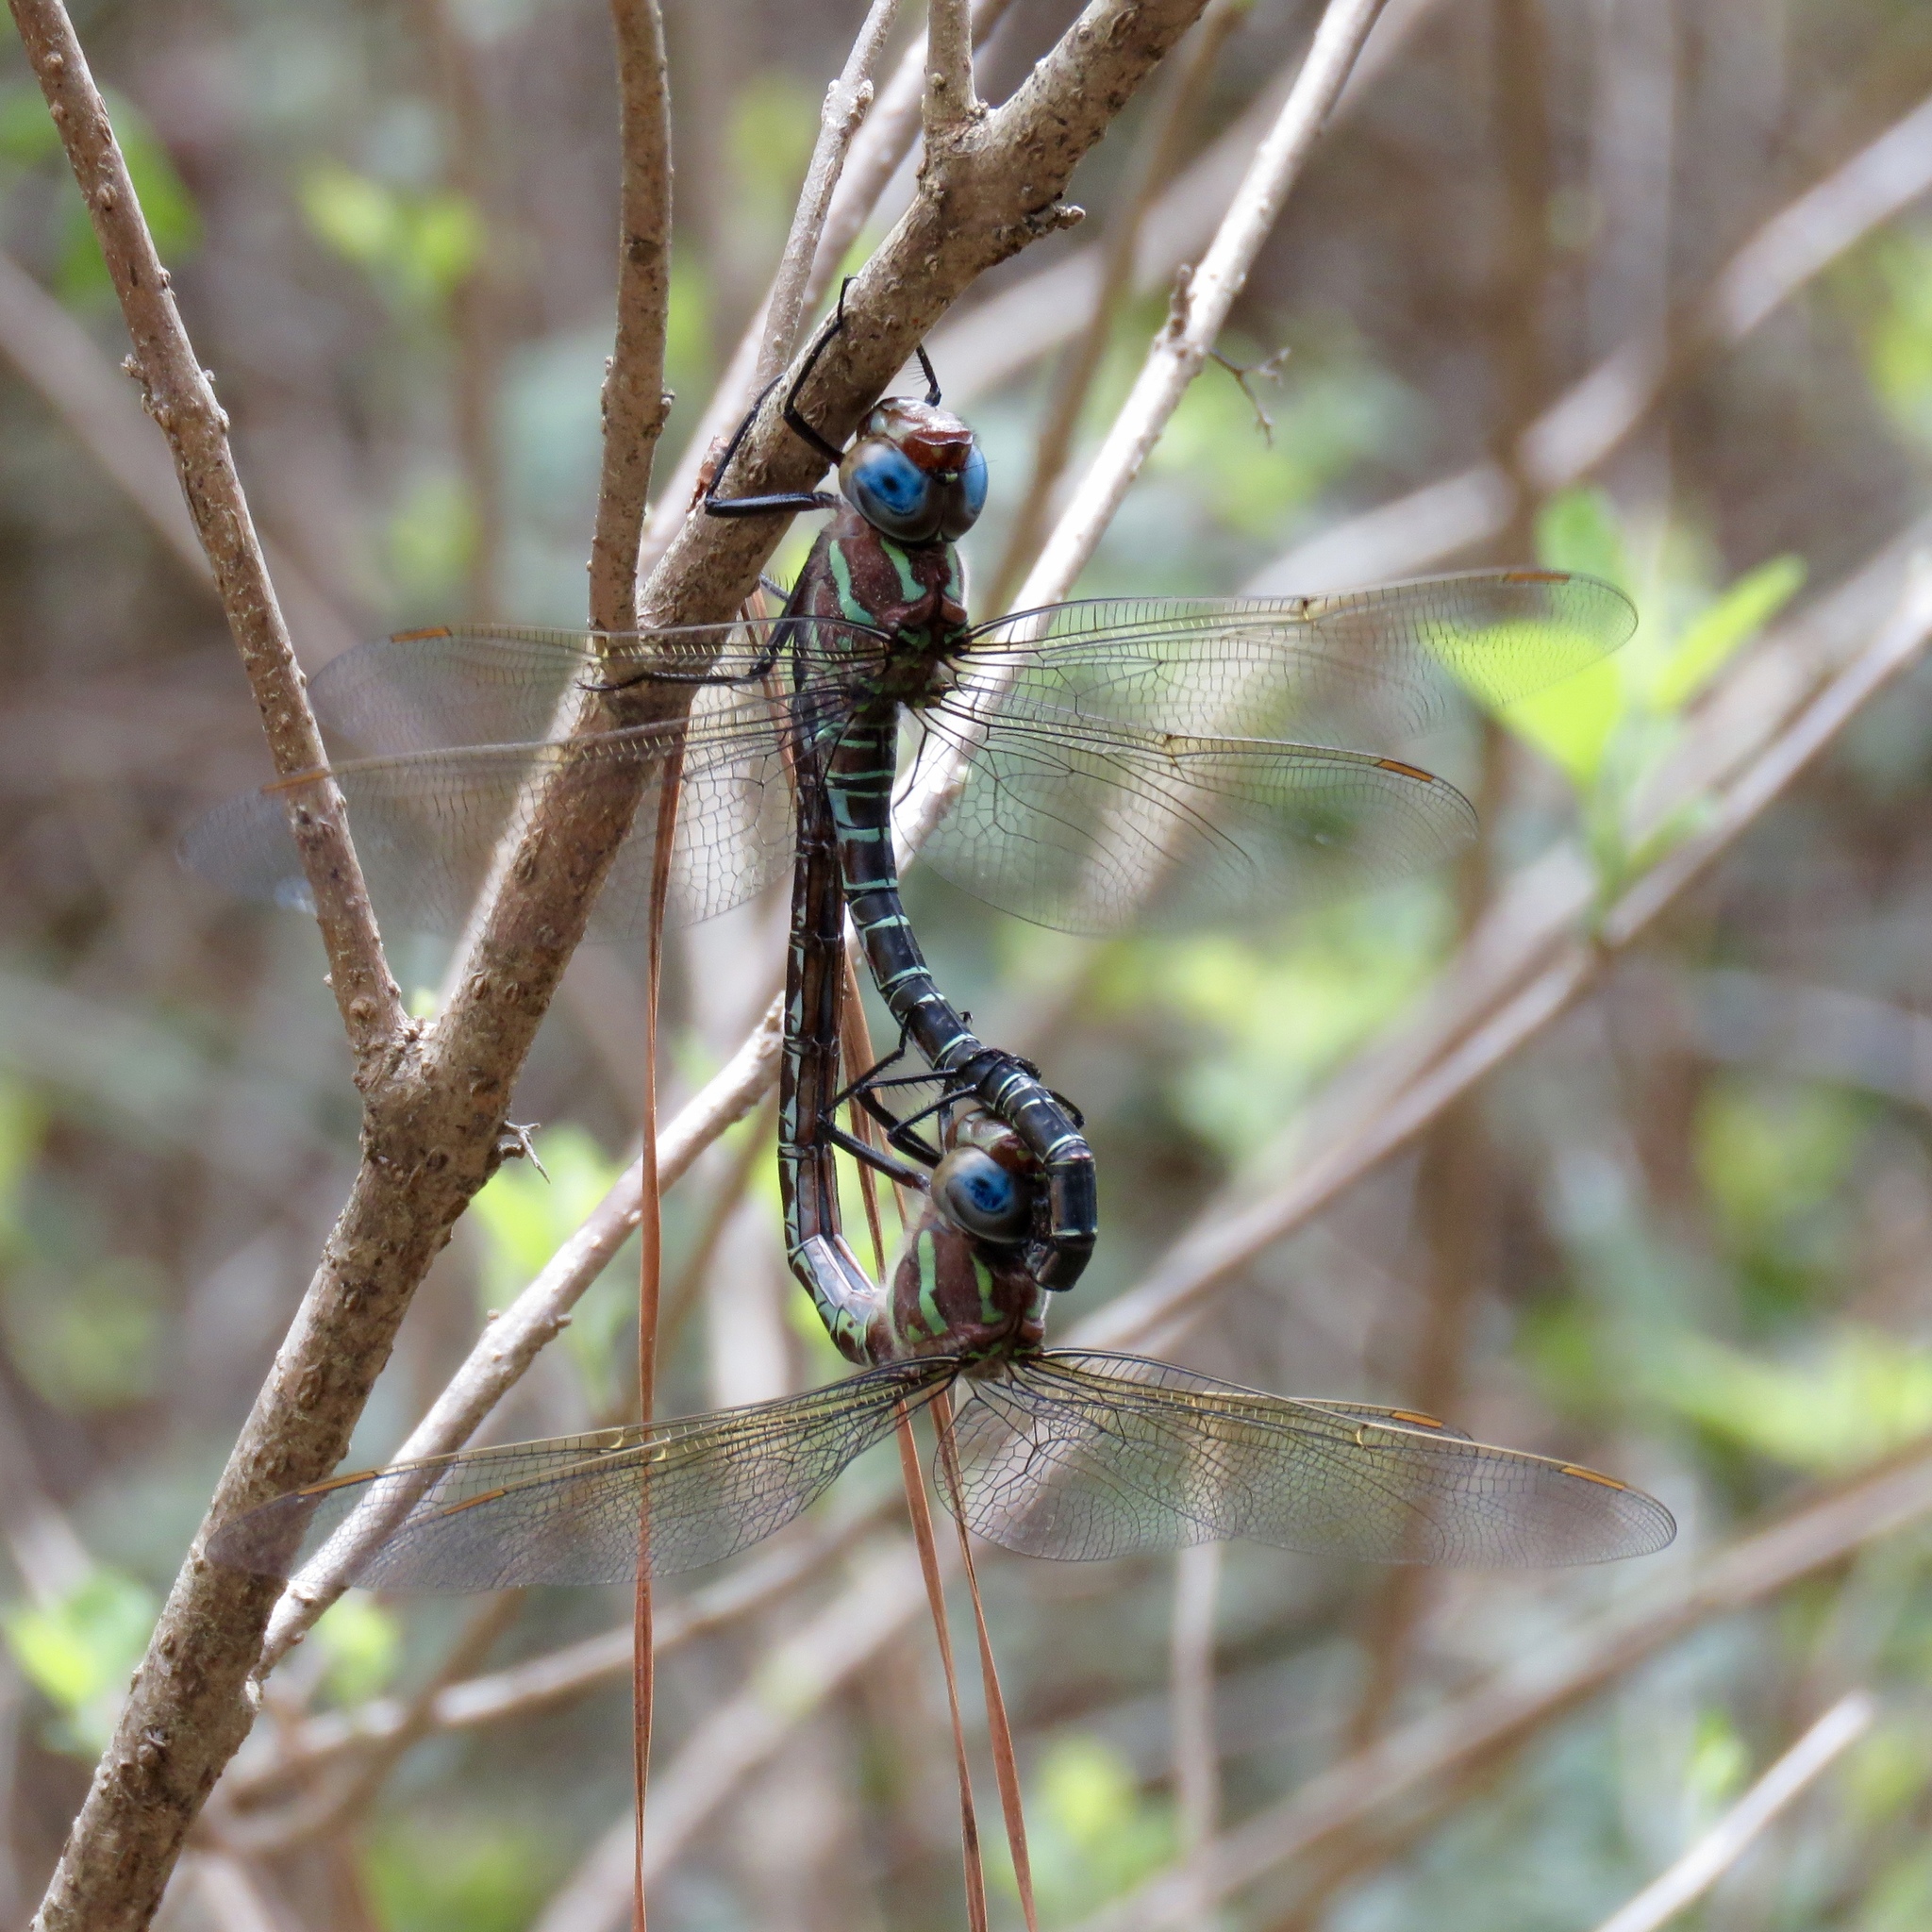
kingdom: Animalia
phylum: Arthropoda
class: Insecta
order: Odonata
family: Aeshnidae
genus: Epiaeschna
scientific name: Epiaeschna heros
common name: Swamp darner
